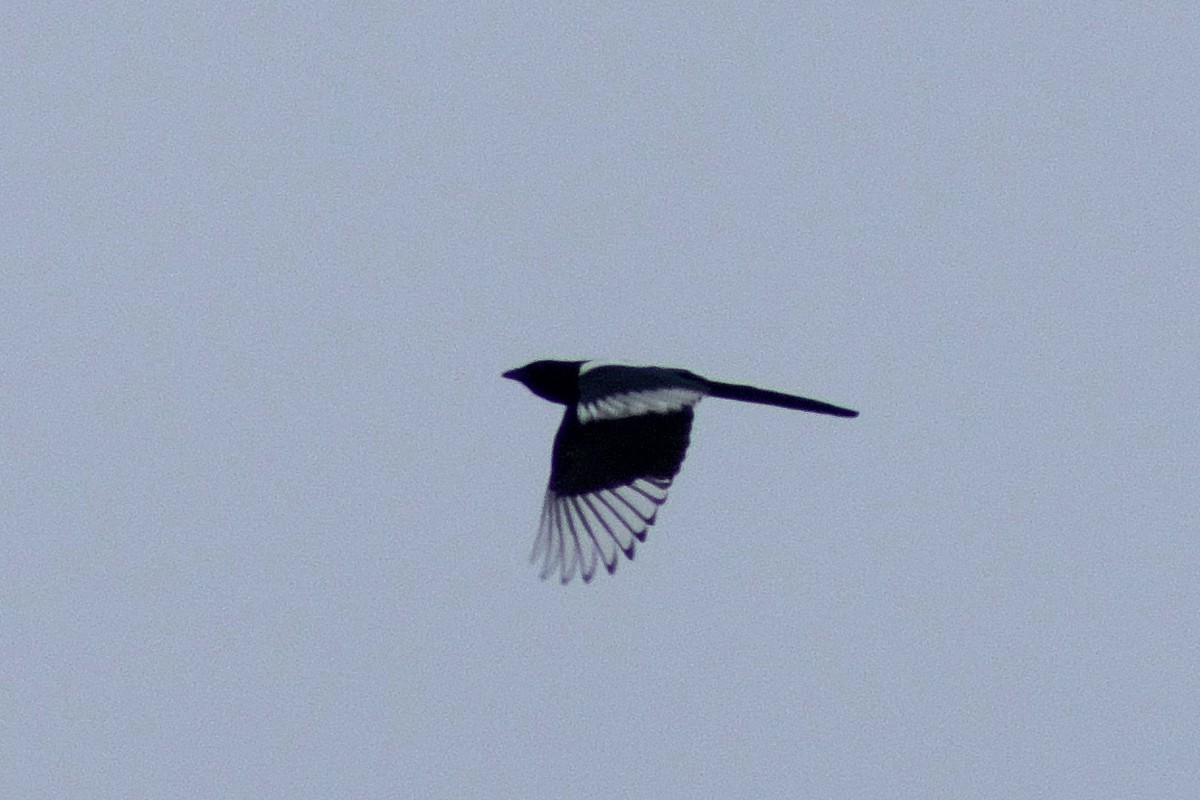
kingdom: Animalia
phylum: Chordata
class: Aves
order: Passeriformes
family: Corvidae
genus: Pica
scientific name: Pica pica
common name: Eurasian magpie
